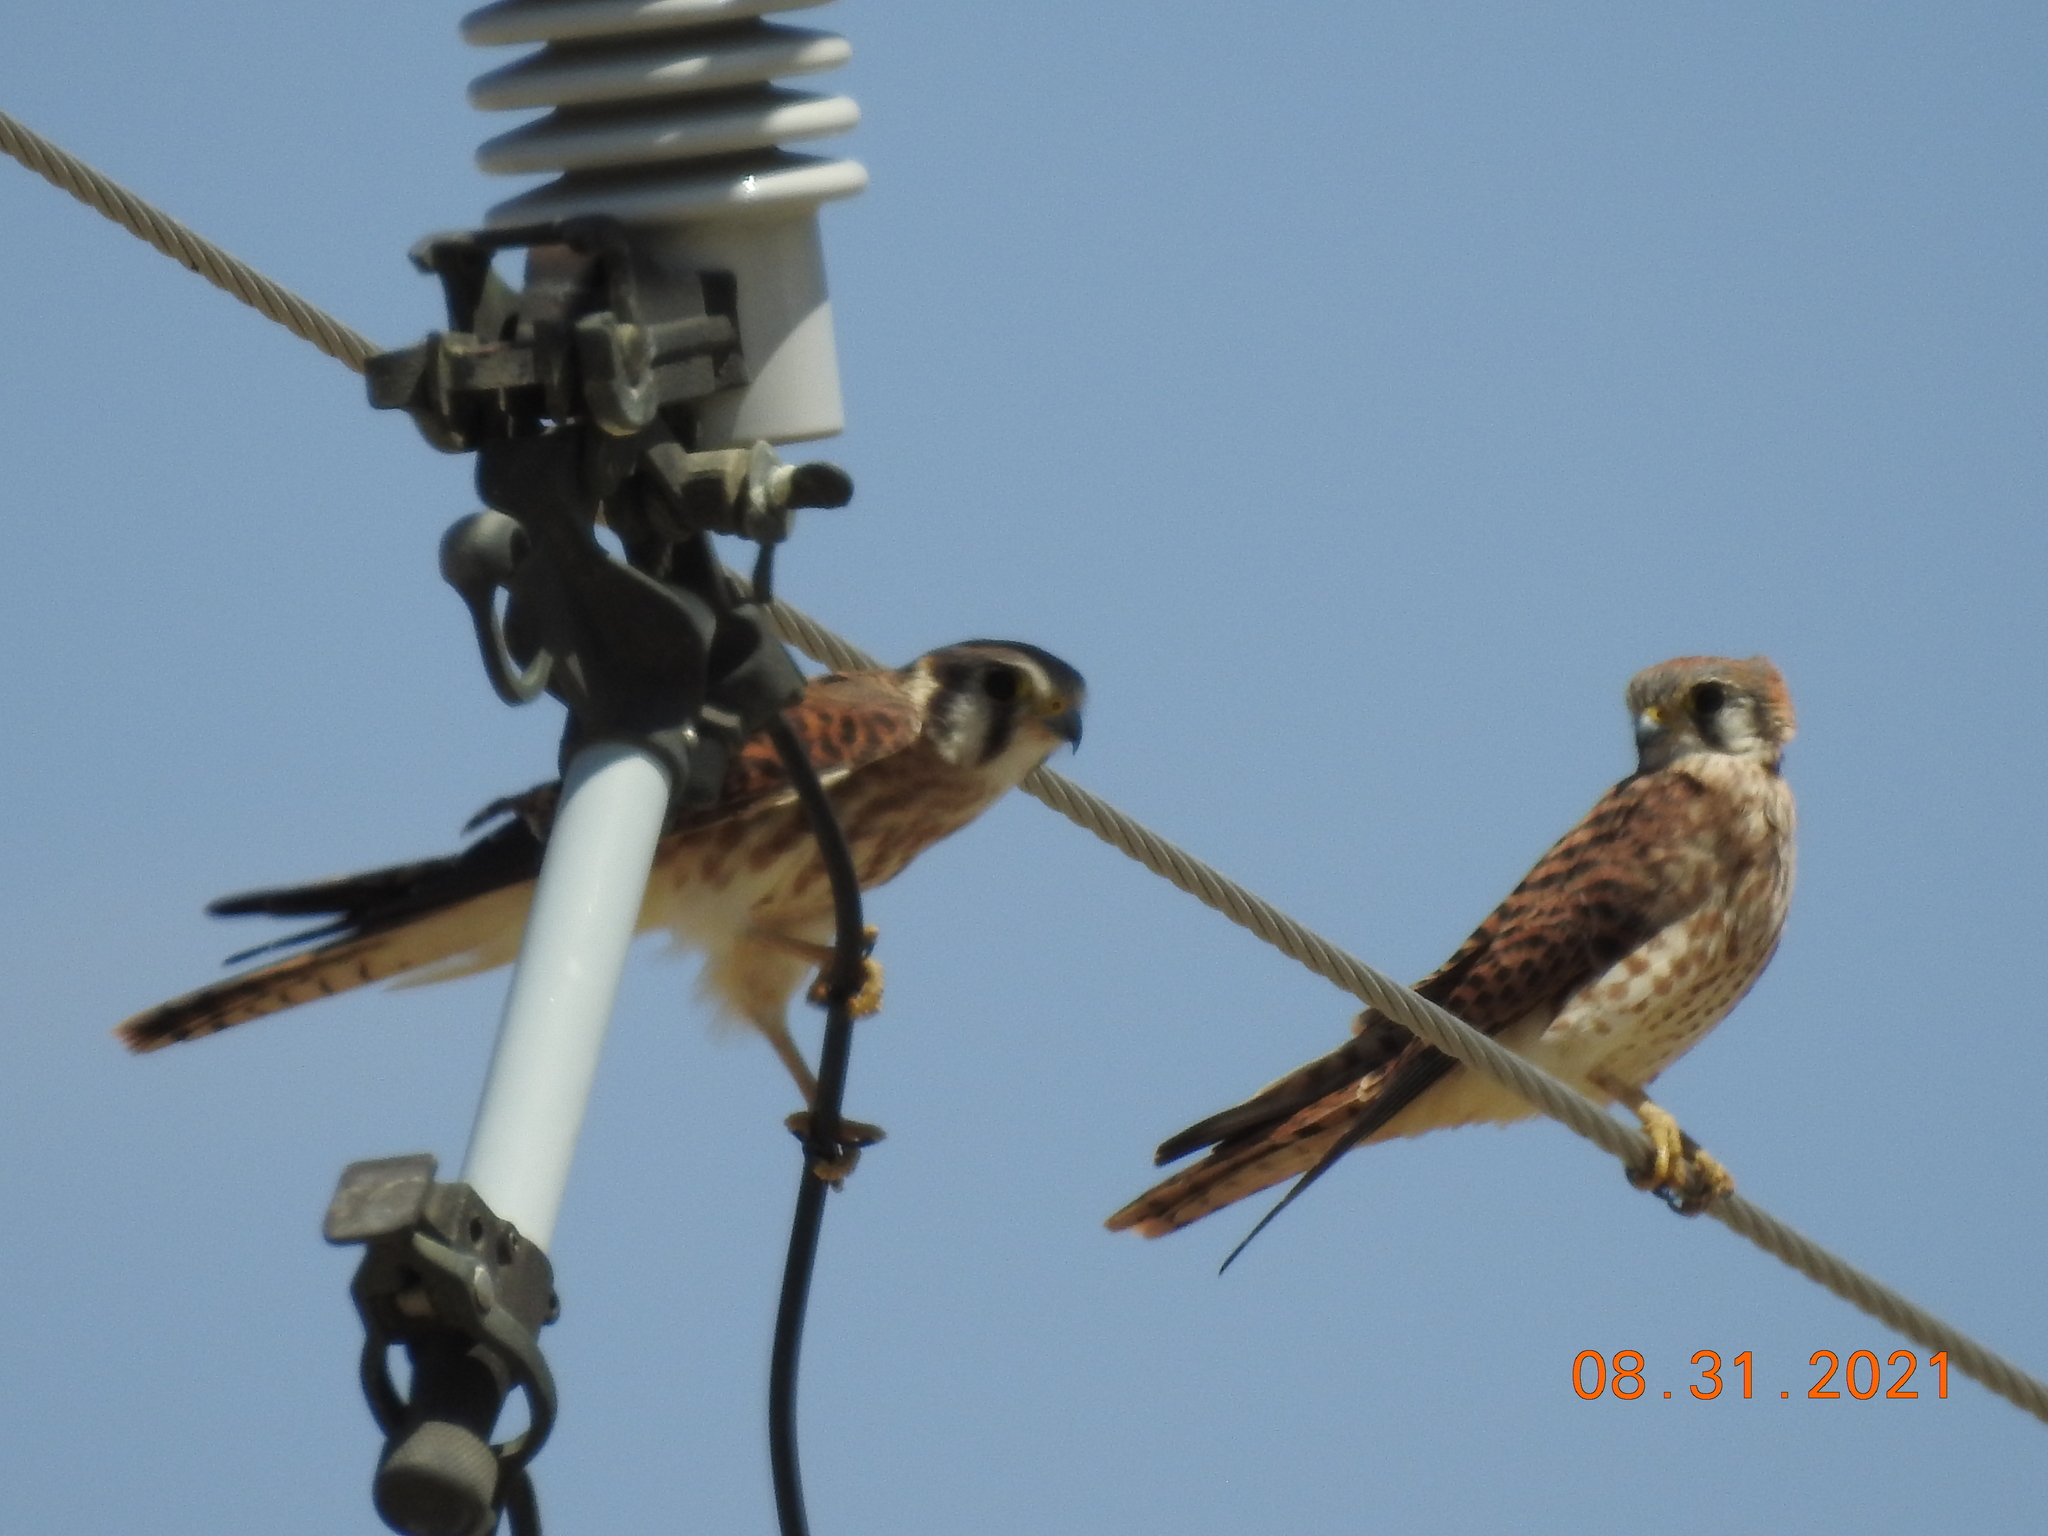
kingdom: Animalia
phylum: Chordata
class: Aves
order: Falconiformes
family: Falconidae
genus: Falco
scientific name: Falco sparverius
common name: American kestrel
